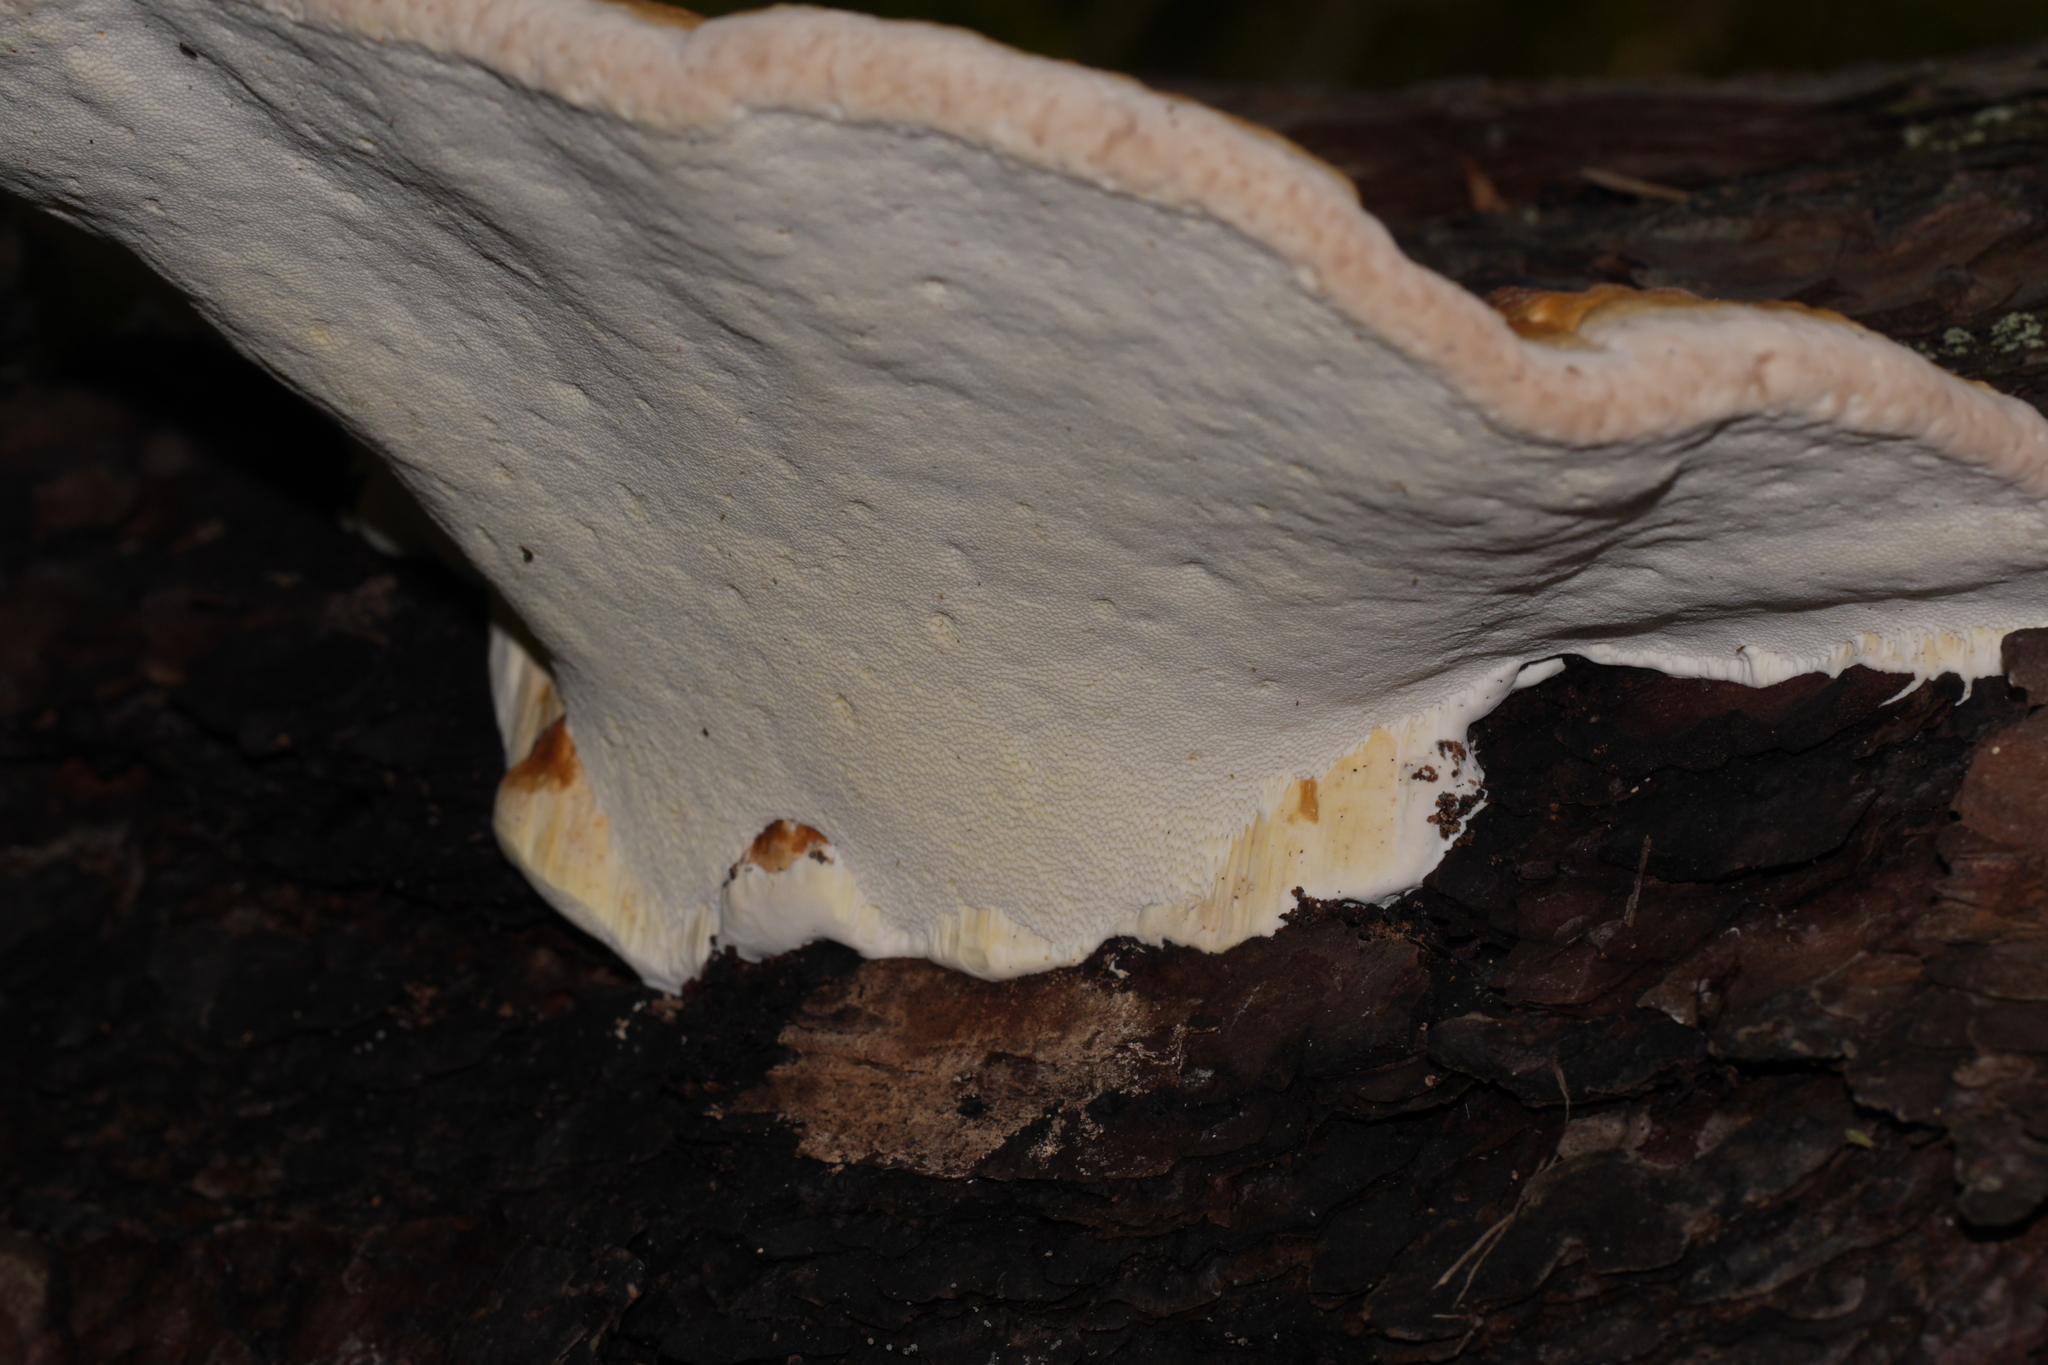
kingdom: Fungi
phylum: Basidiomycota
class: Agaricomycetes
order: Polyporales
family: Fomitopsidaceae
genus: Fomitopsis
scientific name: Fomitopsis pinicola
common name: Red-belted bracket
